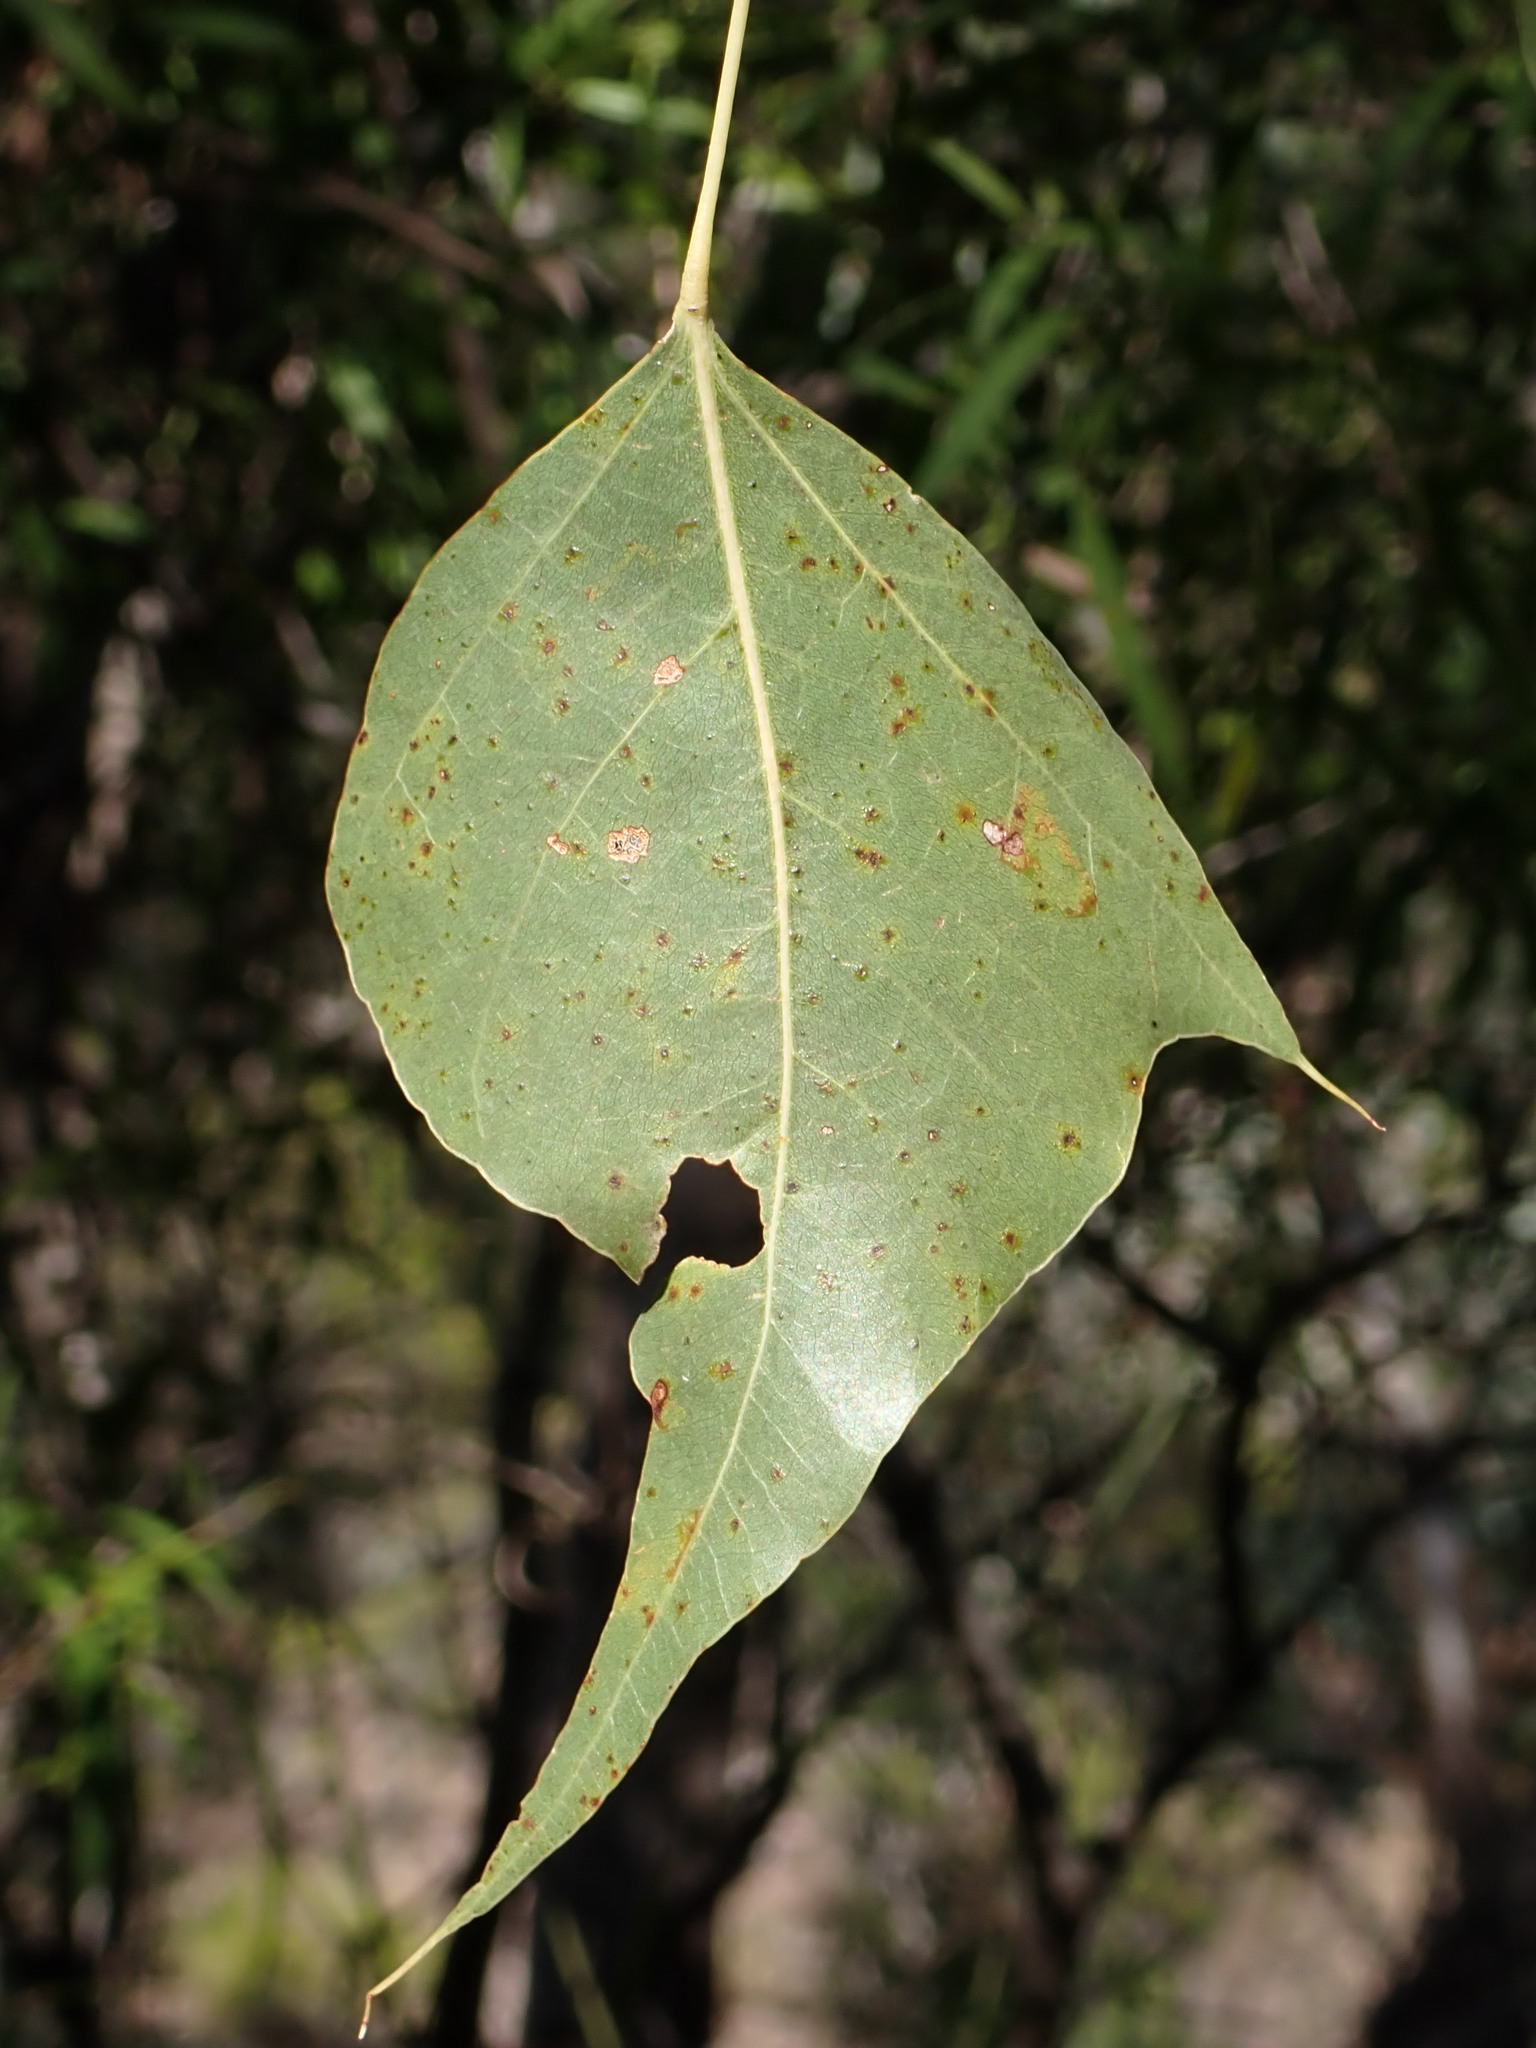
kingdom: Plantae
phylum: Tracheophyta
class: Magnoliopsida
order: Malvales
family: Malvaceae
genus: Brachychiton
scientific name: Brachychiton populneus
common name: Kurrajong
